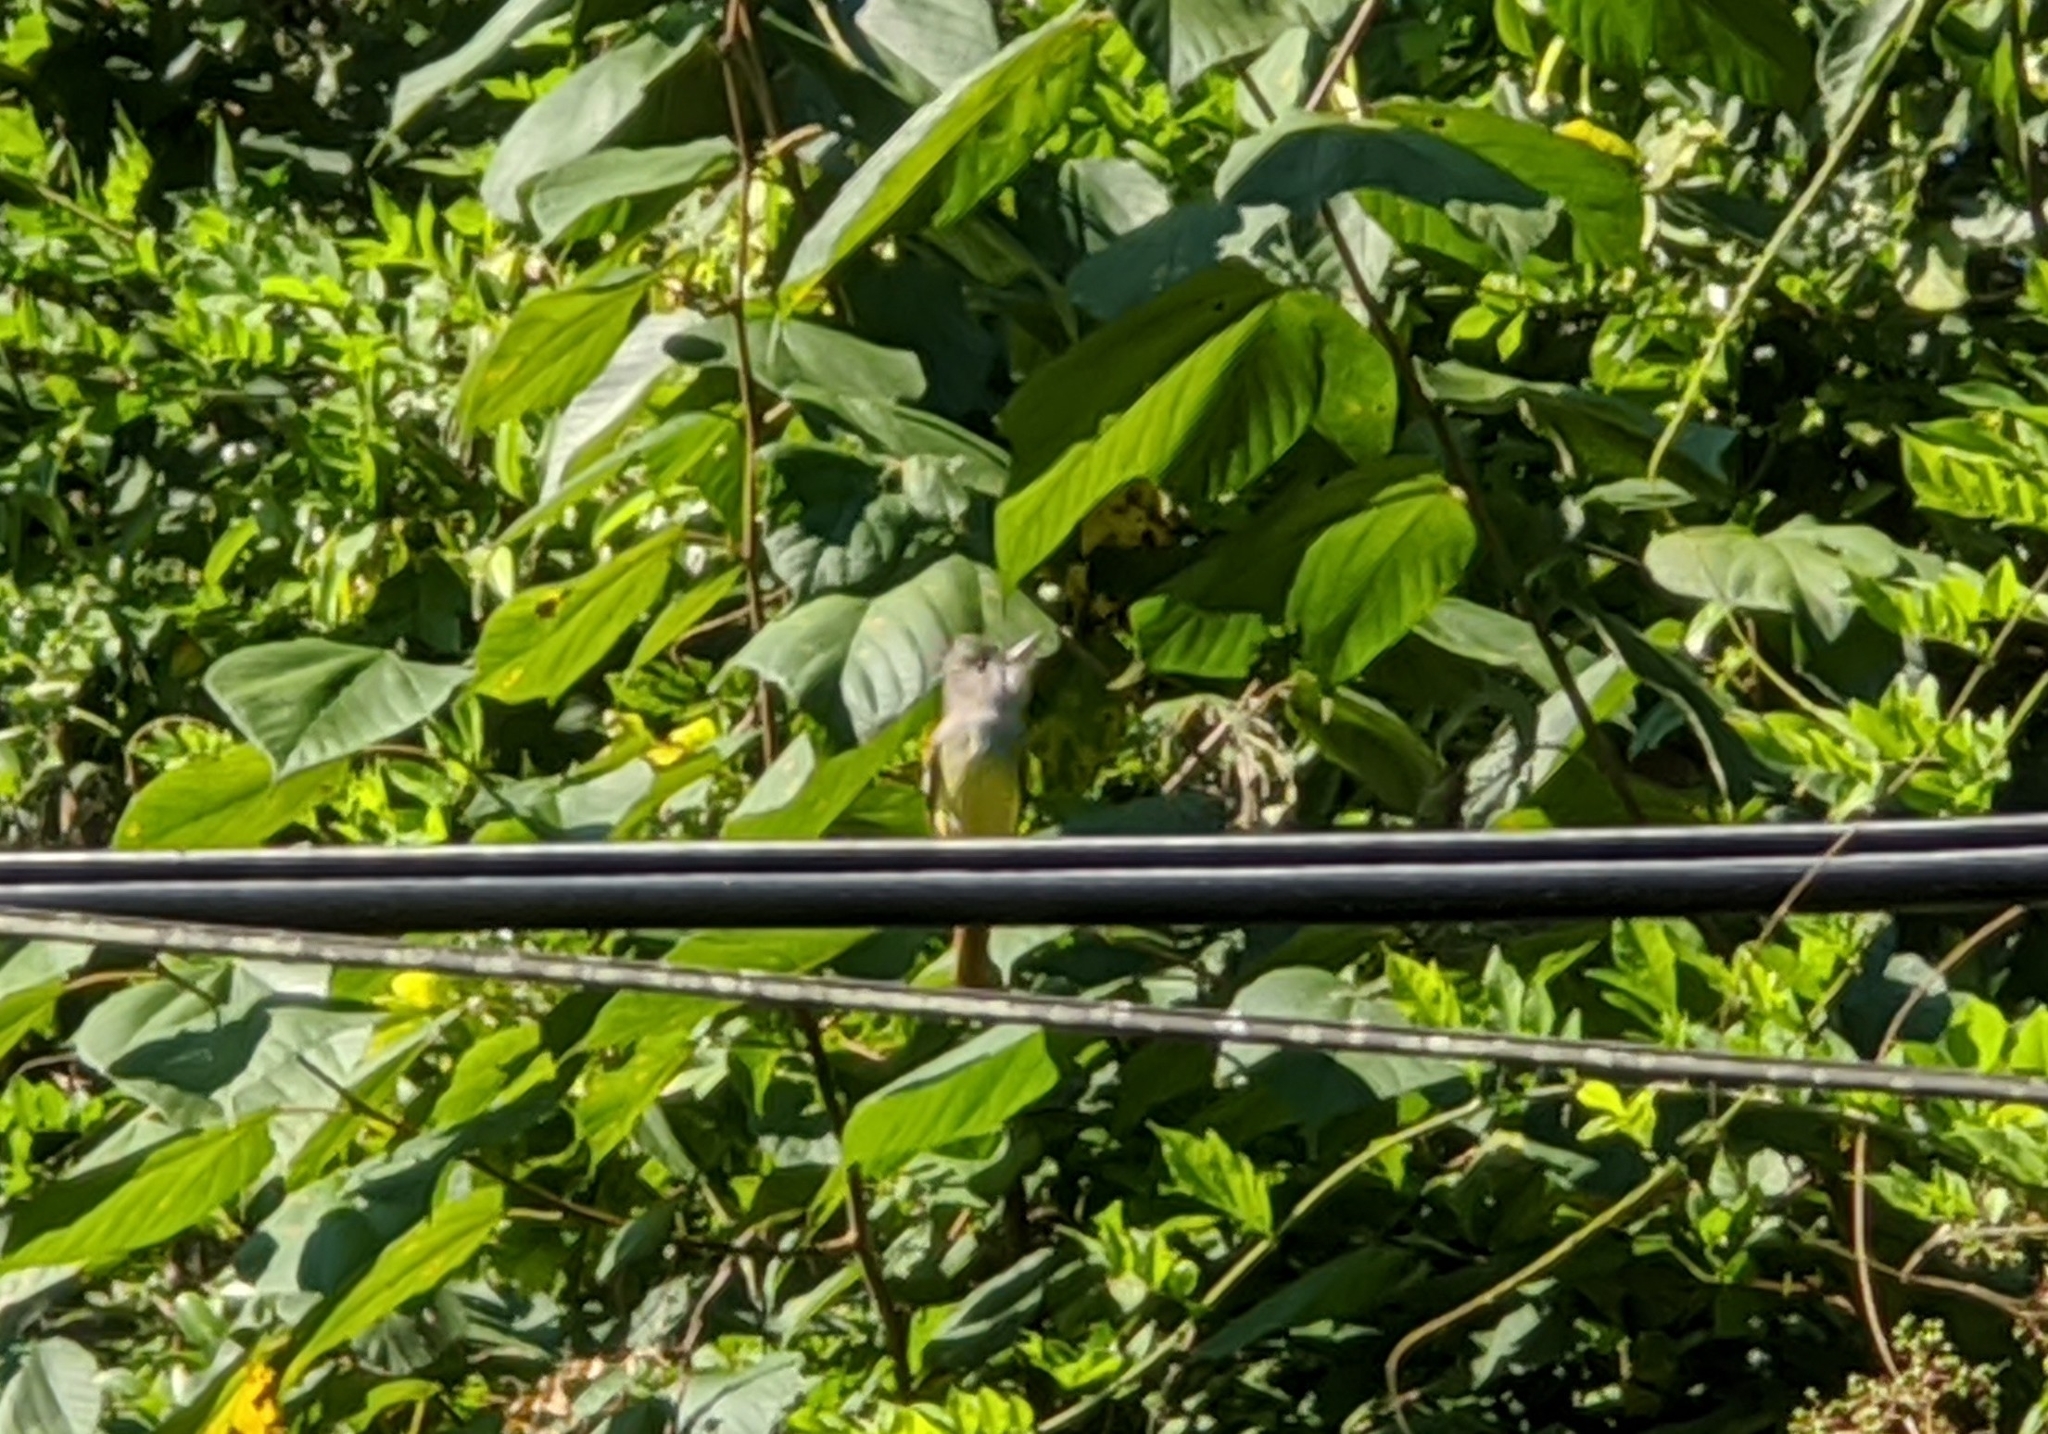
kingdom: Animalia
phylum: Chordata
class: Aves
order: Passeriformes
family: Tyrannidae
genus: Myiarchus
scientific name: Myiarchus crinitus
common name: Great crested flycatcher
